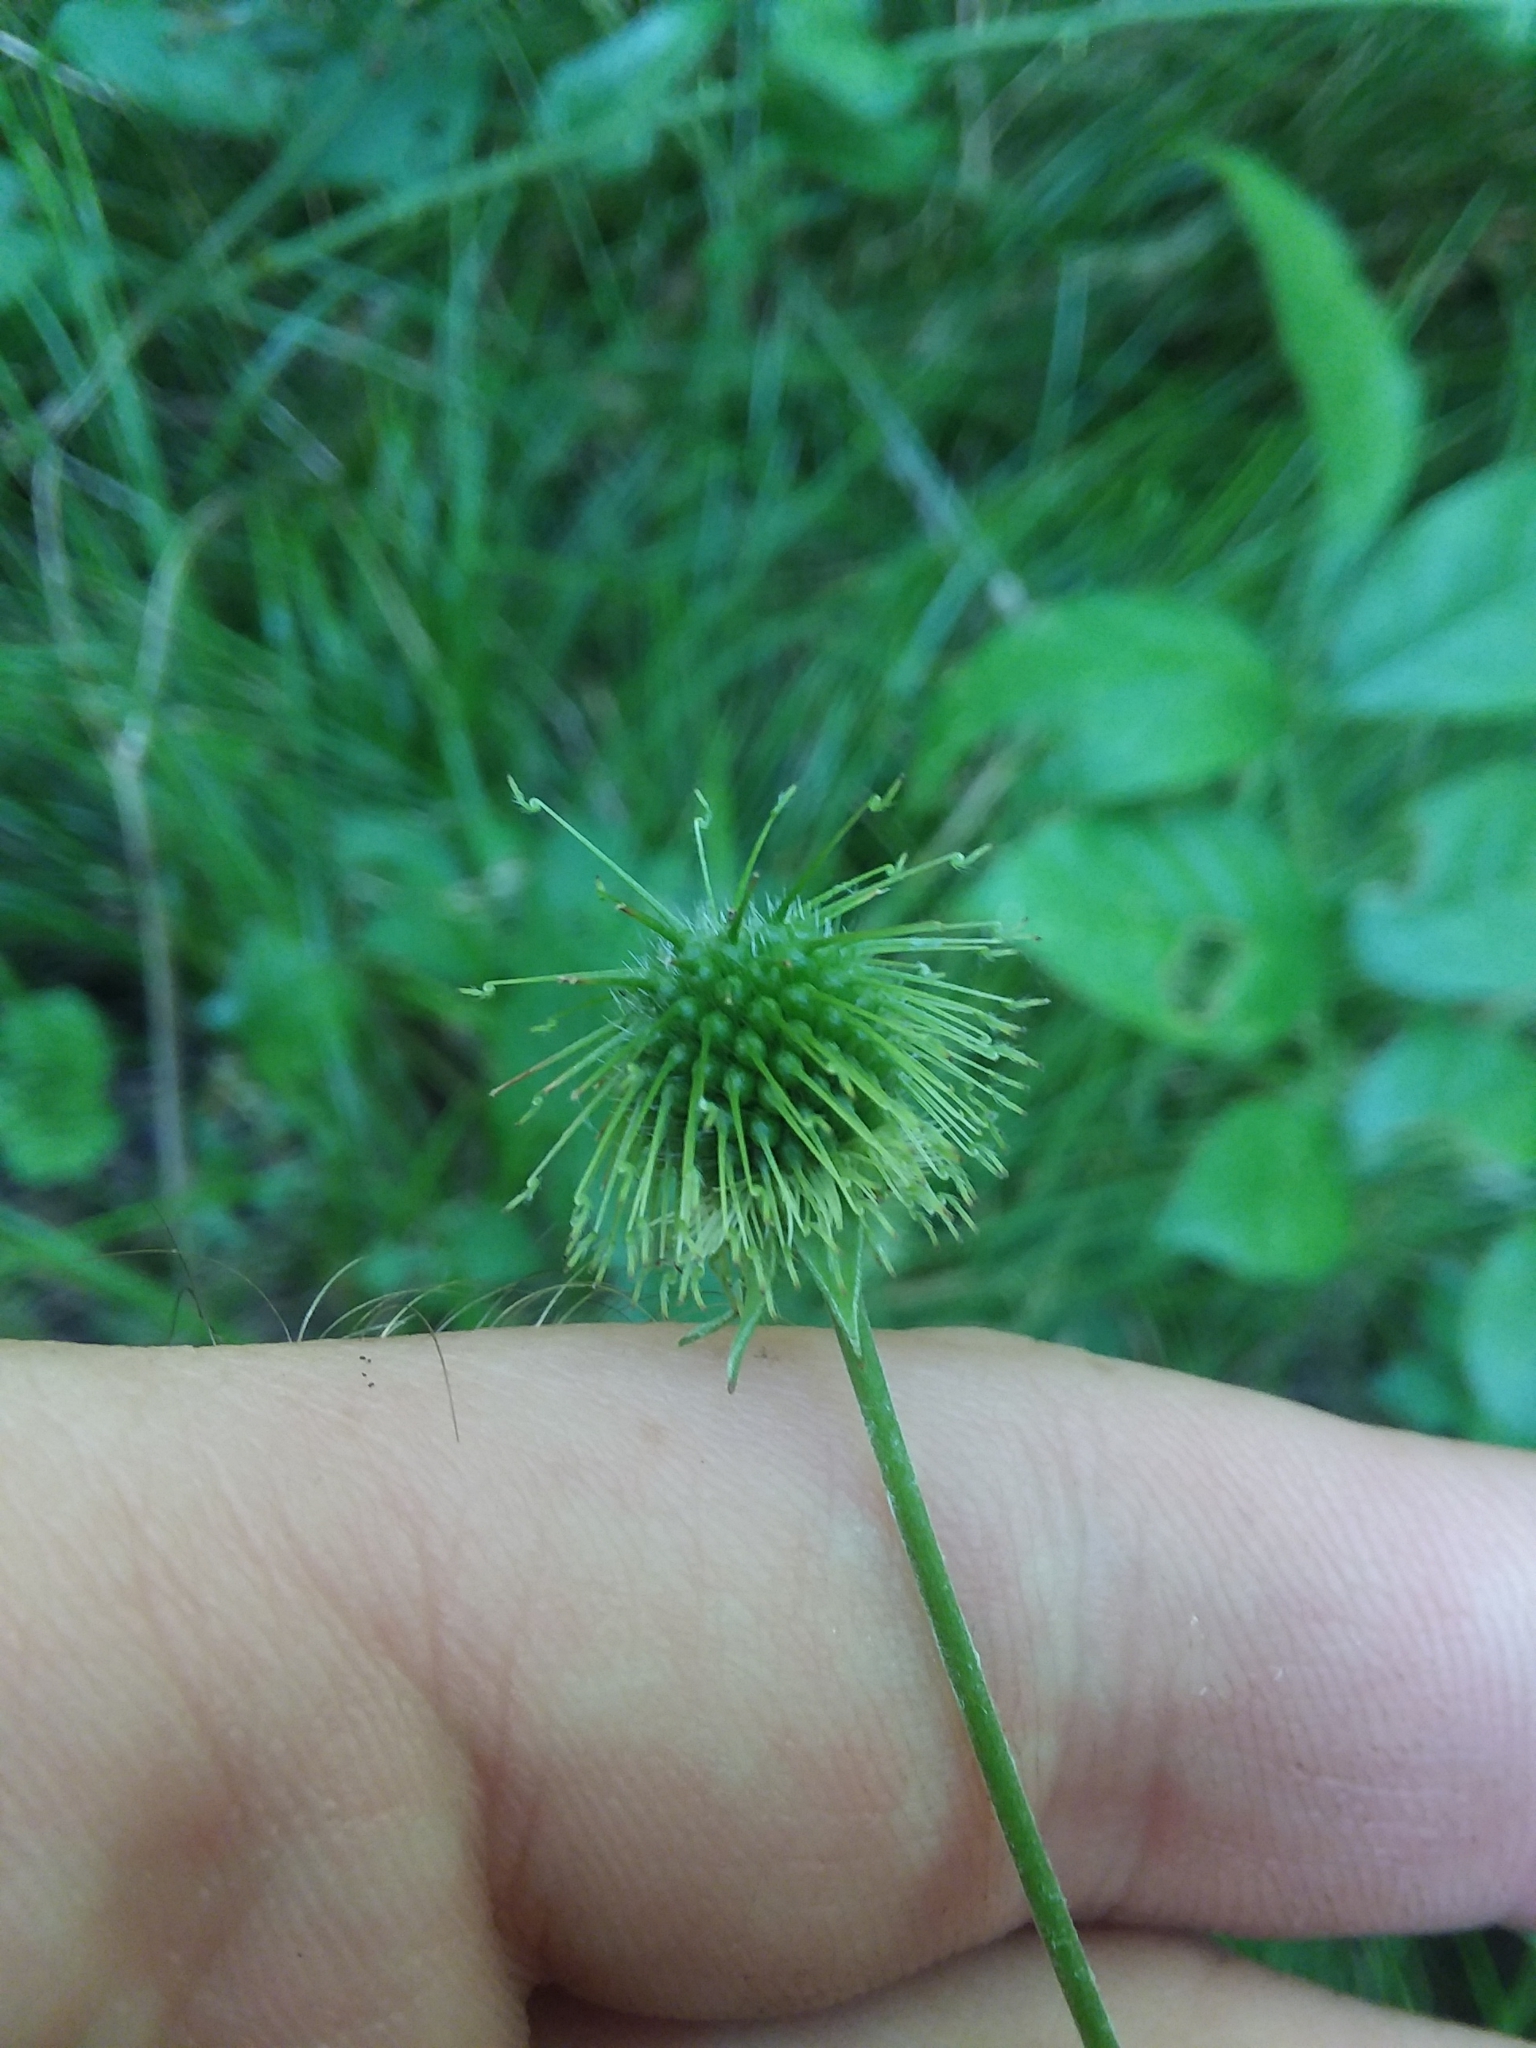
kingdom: Plantae
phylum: Tracheophyta
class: Magnoliopsida
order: Rosales
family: Rosaceae
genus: Geum
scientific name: Geum canadense
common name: White avens
